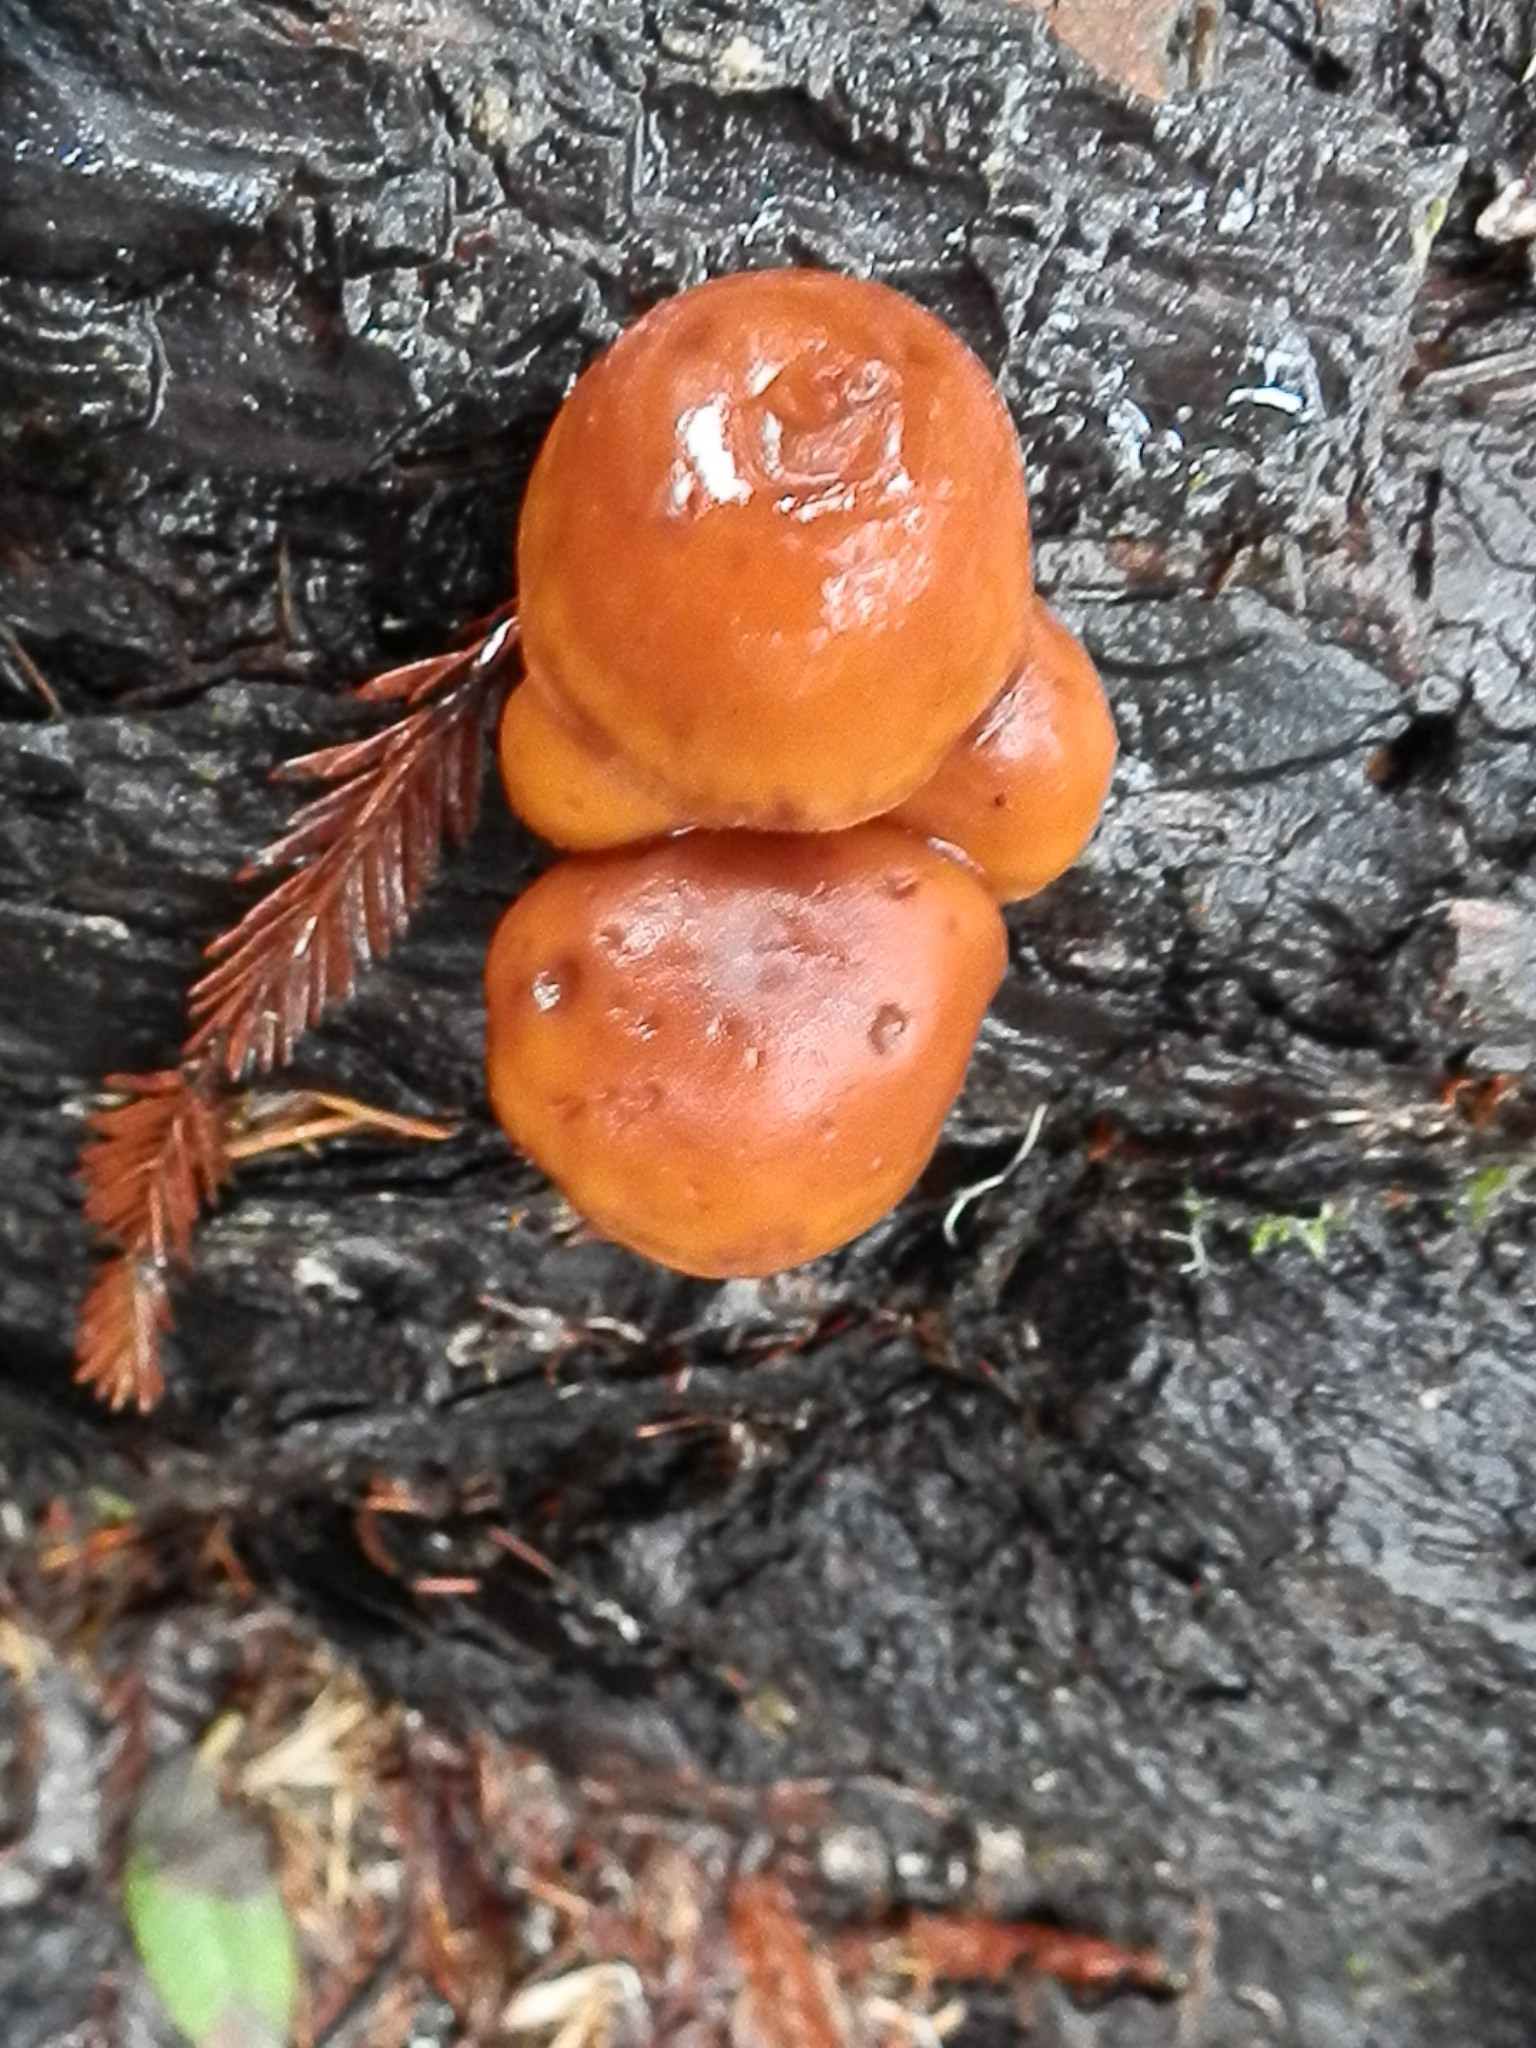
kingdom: Fungi
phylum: Basidiomycota
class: Agaricomycetes
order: Agaricales
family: Hymenogastraceae
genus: Gymnopilus
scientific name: Gymnopilus croceoluteus
